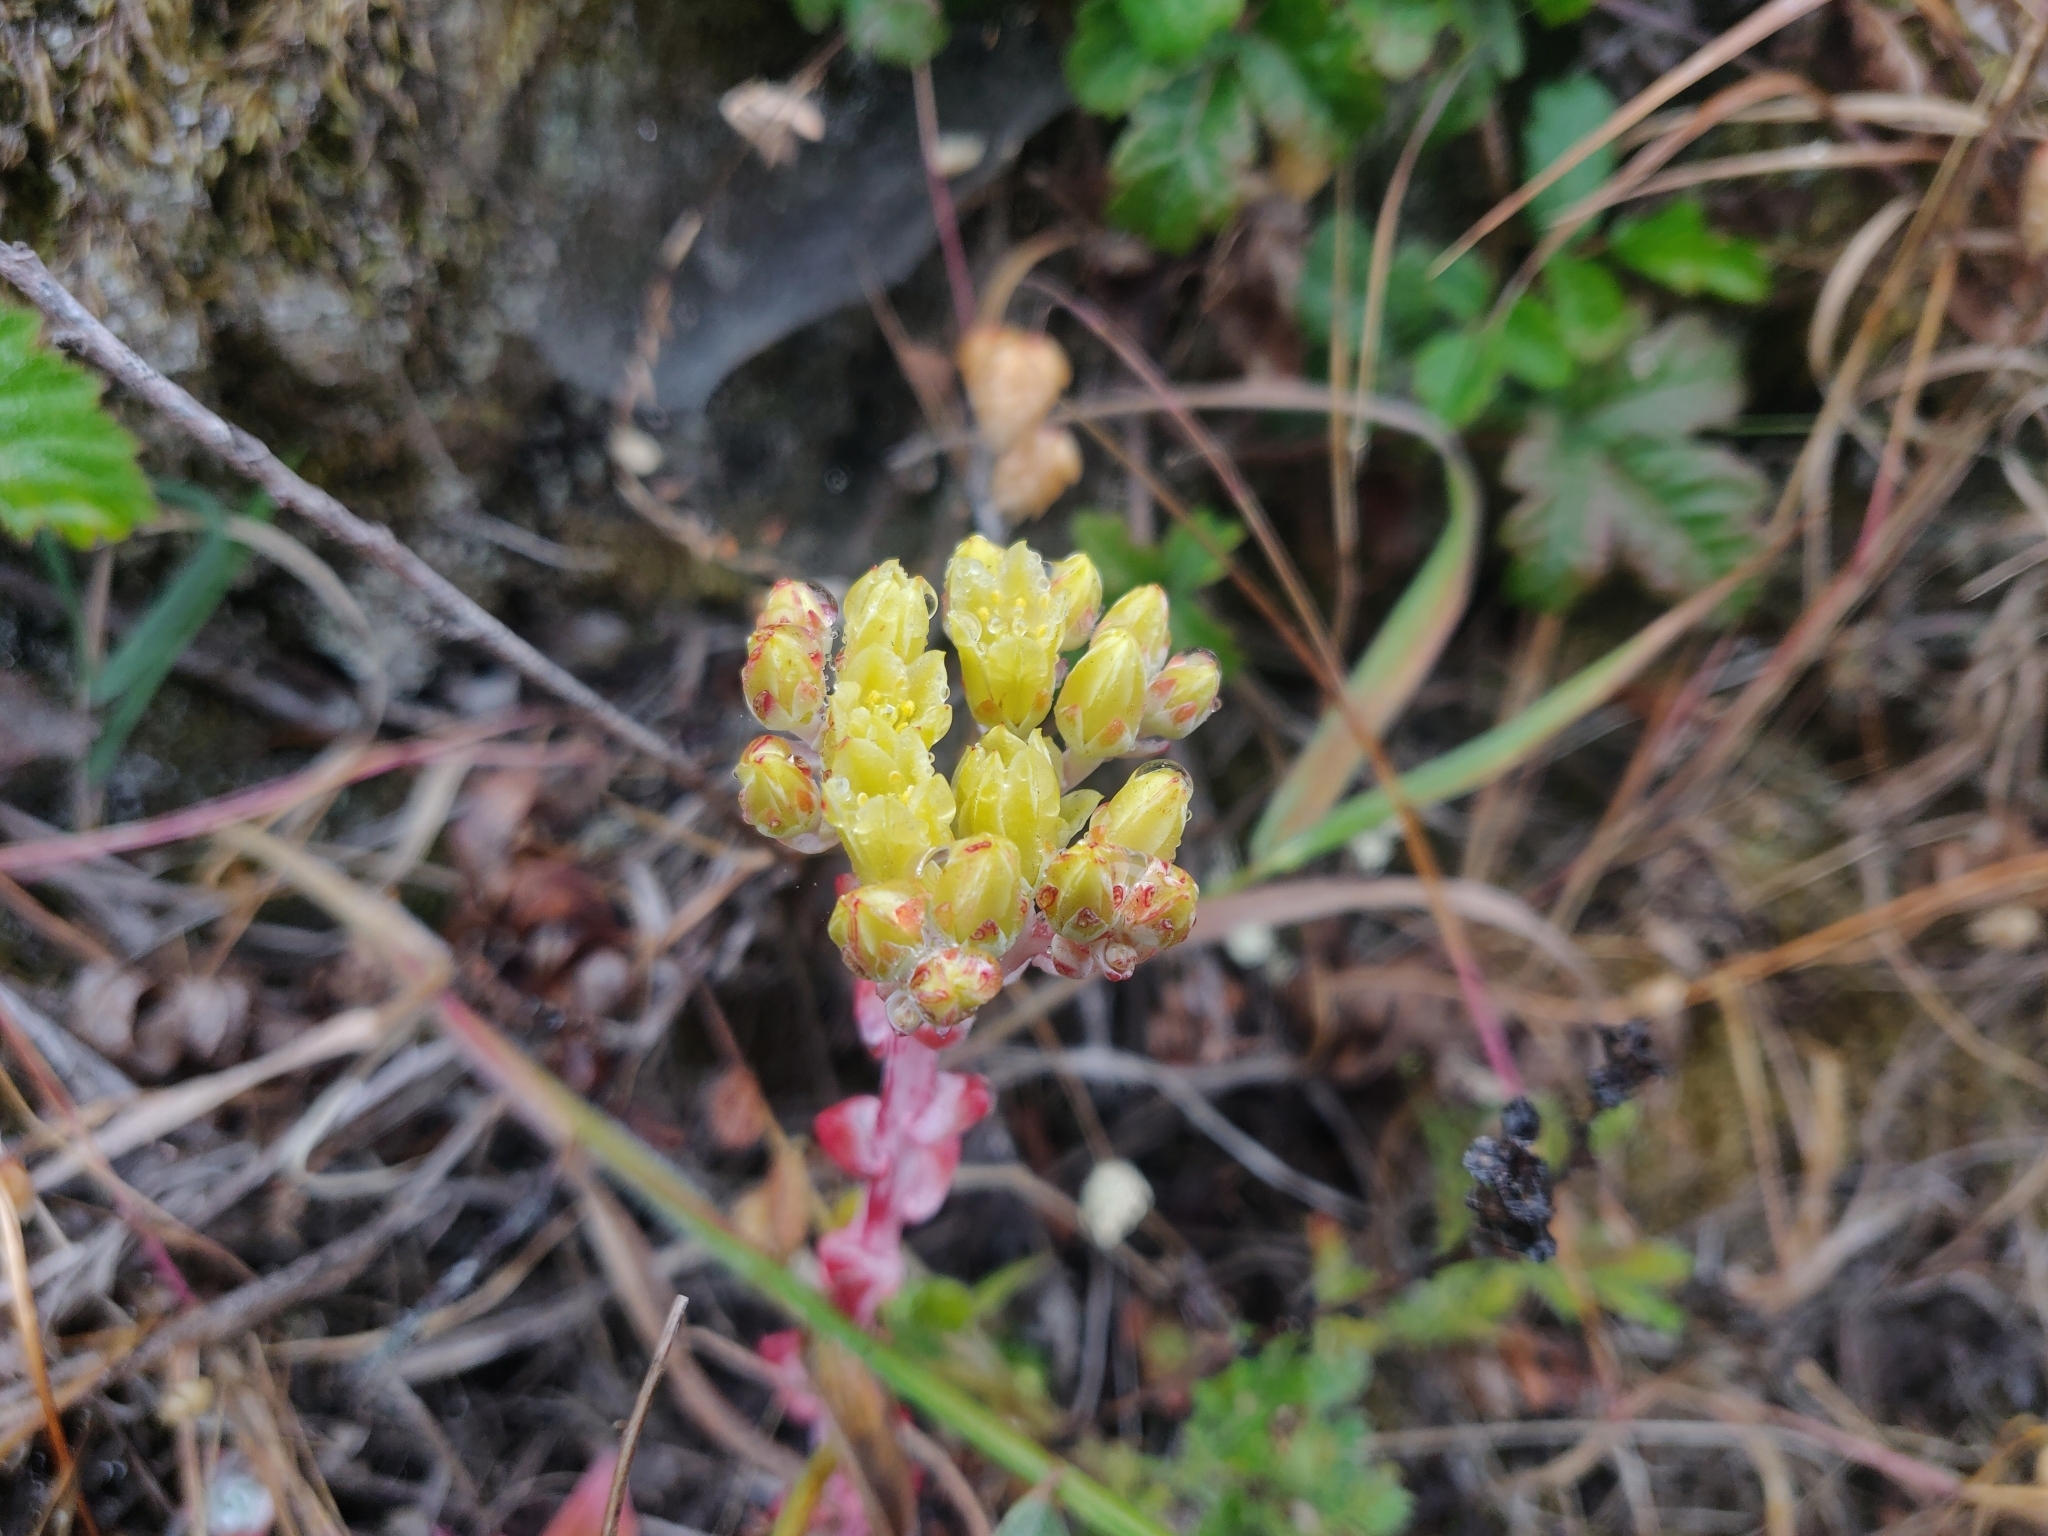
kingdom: Plantae
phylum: Tracheophyta
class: Magnoliopsida
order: Saxifragales
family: Crassulaceae
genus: Dudleya
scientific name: Dudleya farinosa
